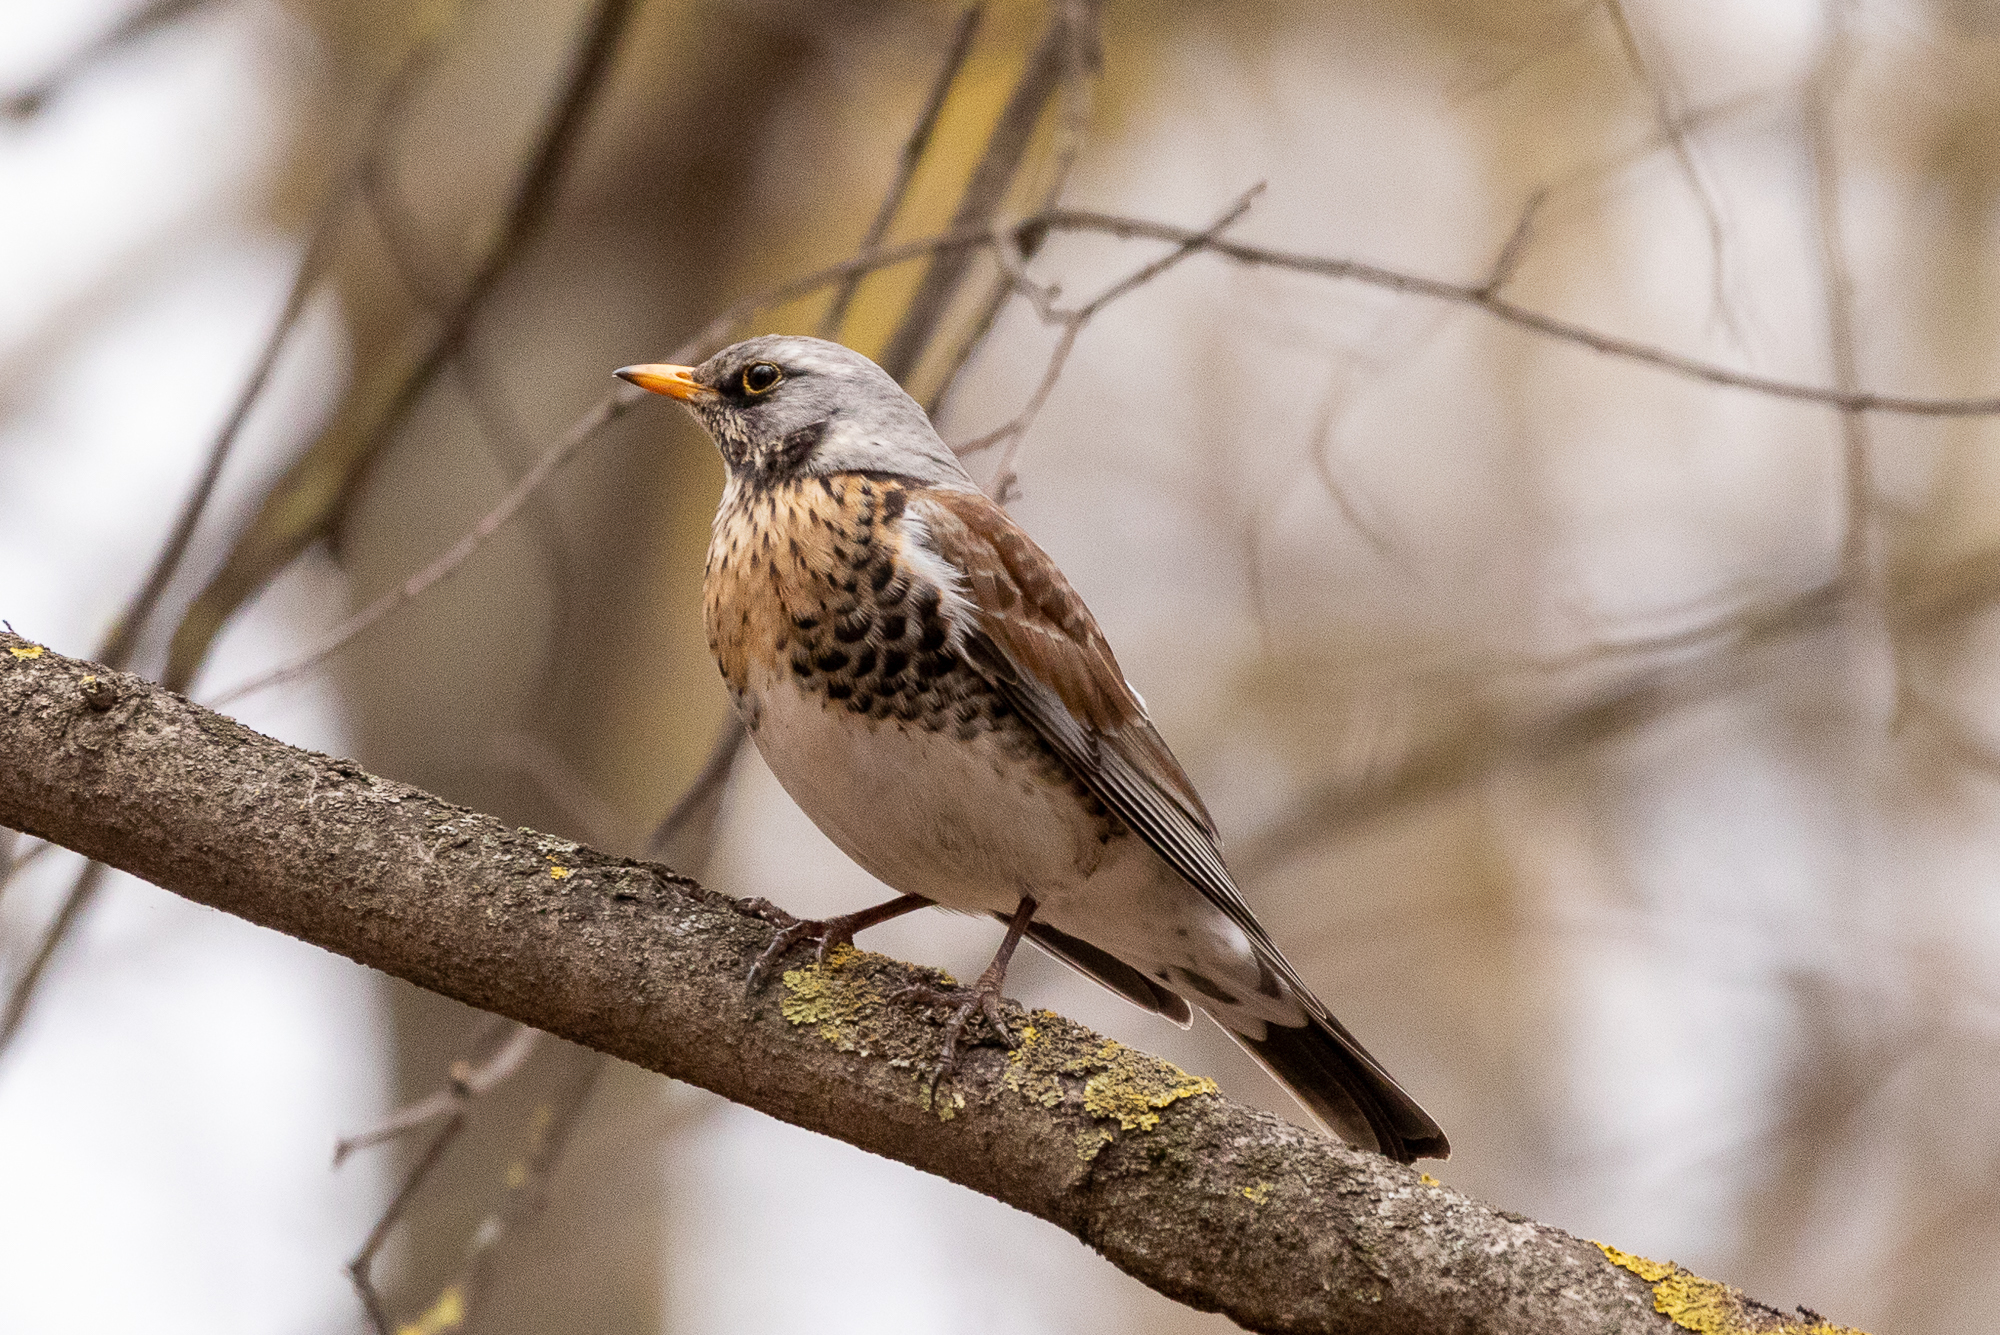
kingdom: Animalia
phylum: Chordata
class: Aves
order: Passeriformes
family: Turdidae
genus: Turdus
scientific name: Turdus pilaris
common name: Fieldfare
